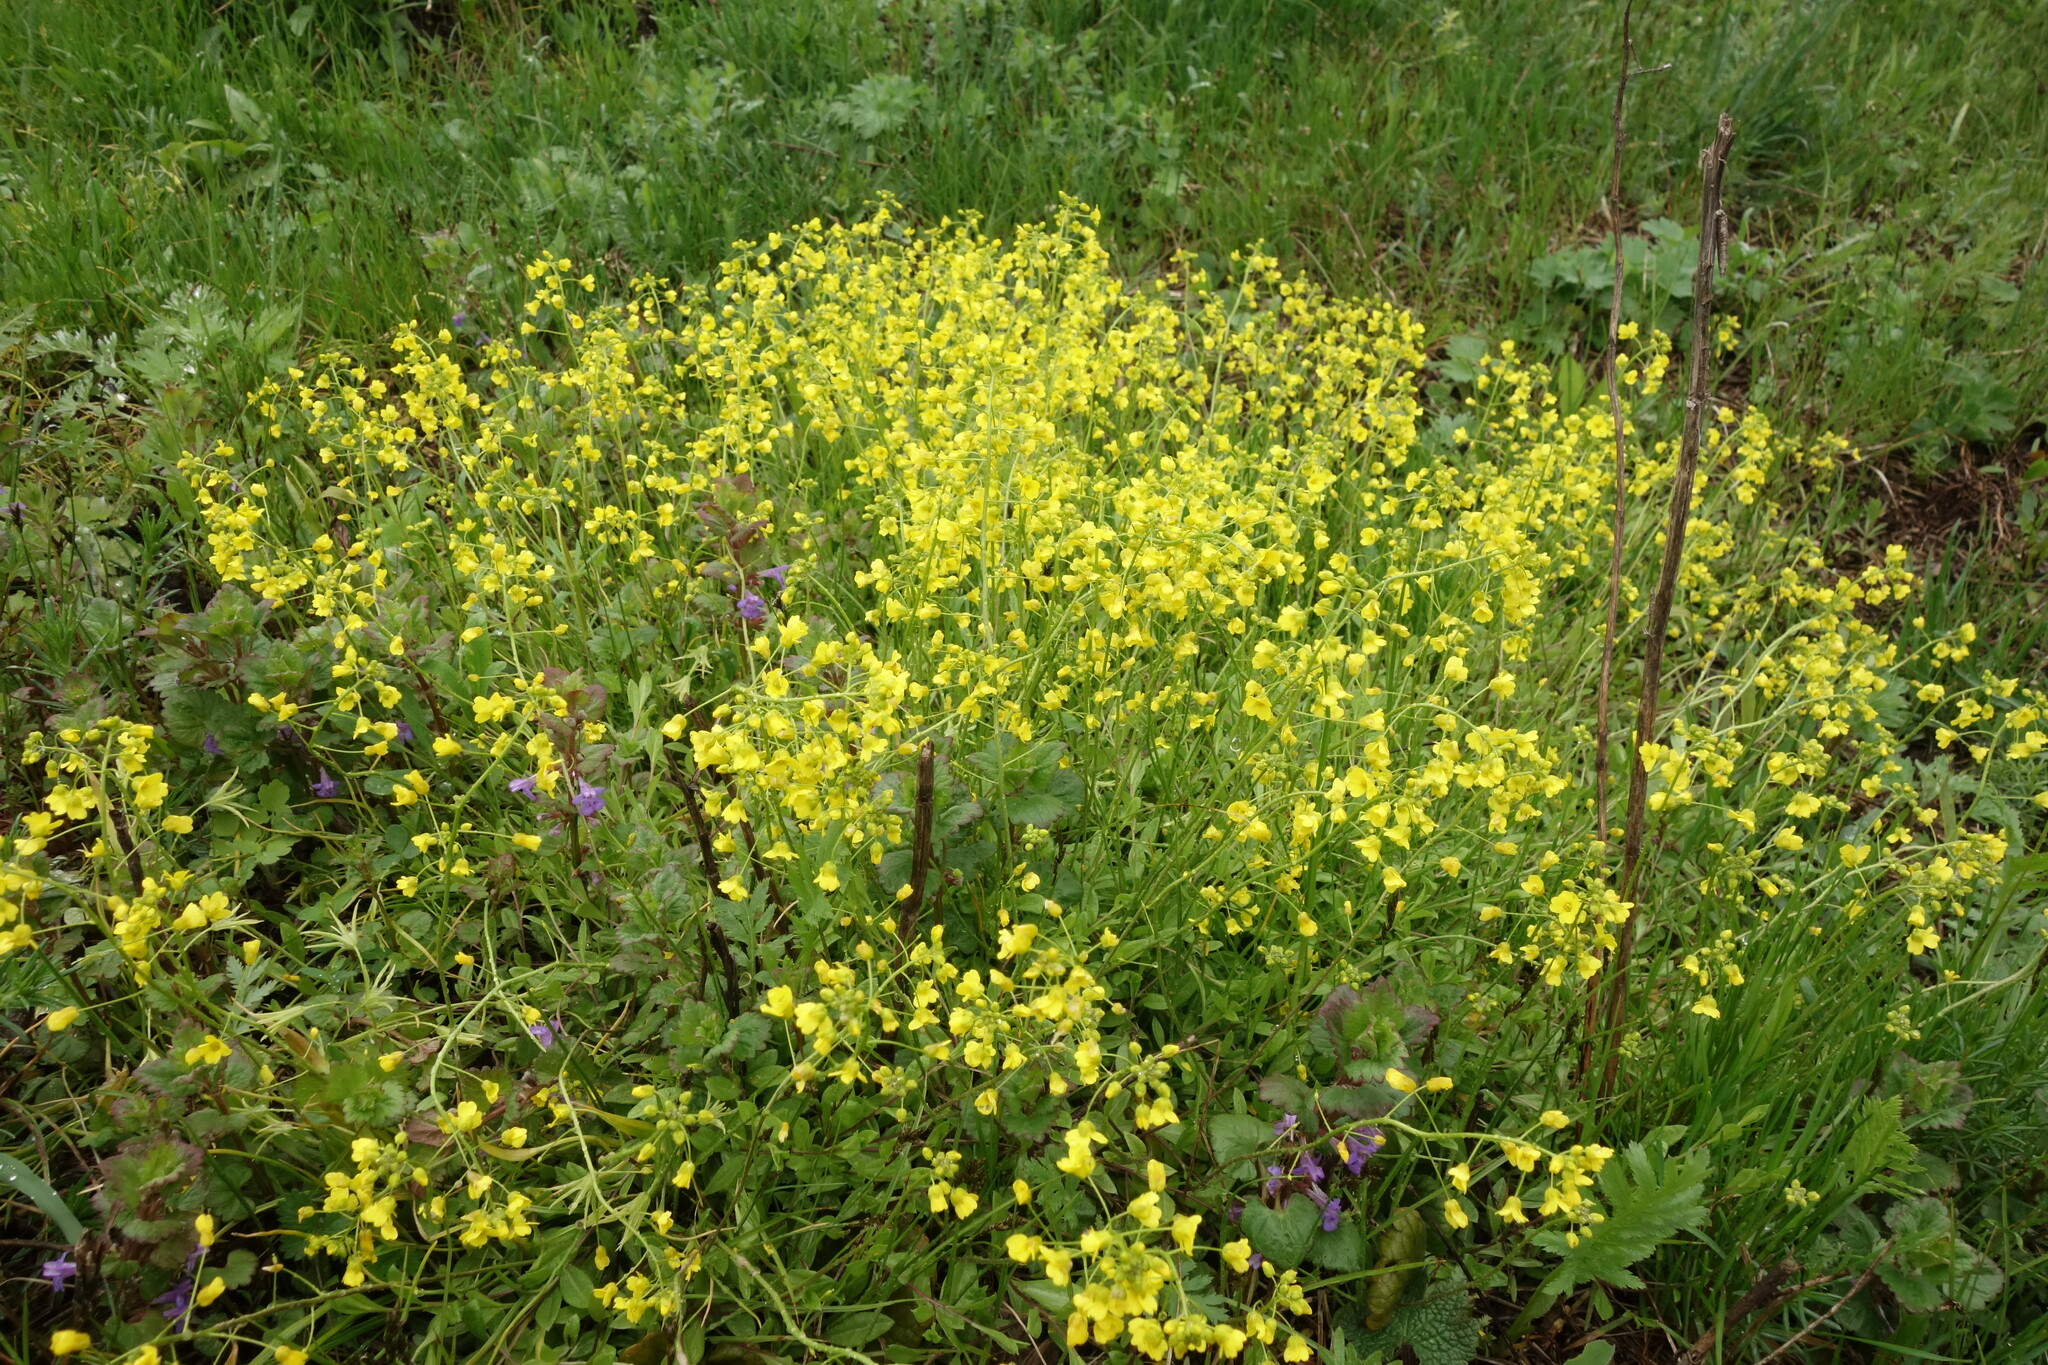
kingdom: Plantae
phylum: Tracheophyta
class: Magnoliopsida
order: Brassicales
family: Brassicaceae
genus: Draba
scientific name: Draba sibirica
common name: Siberian draba
